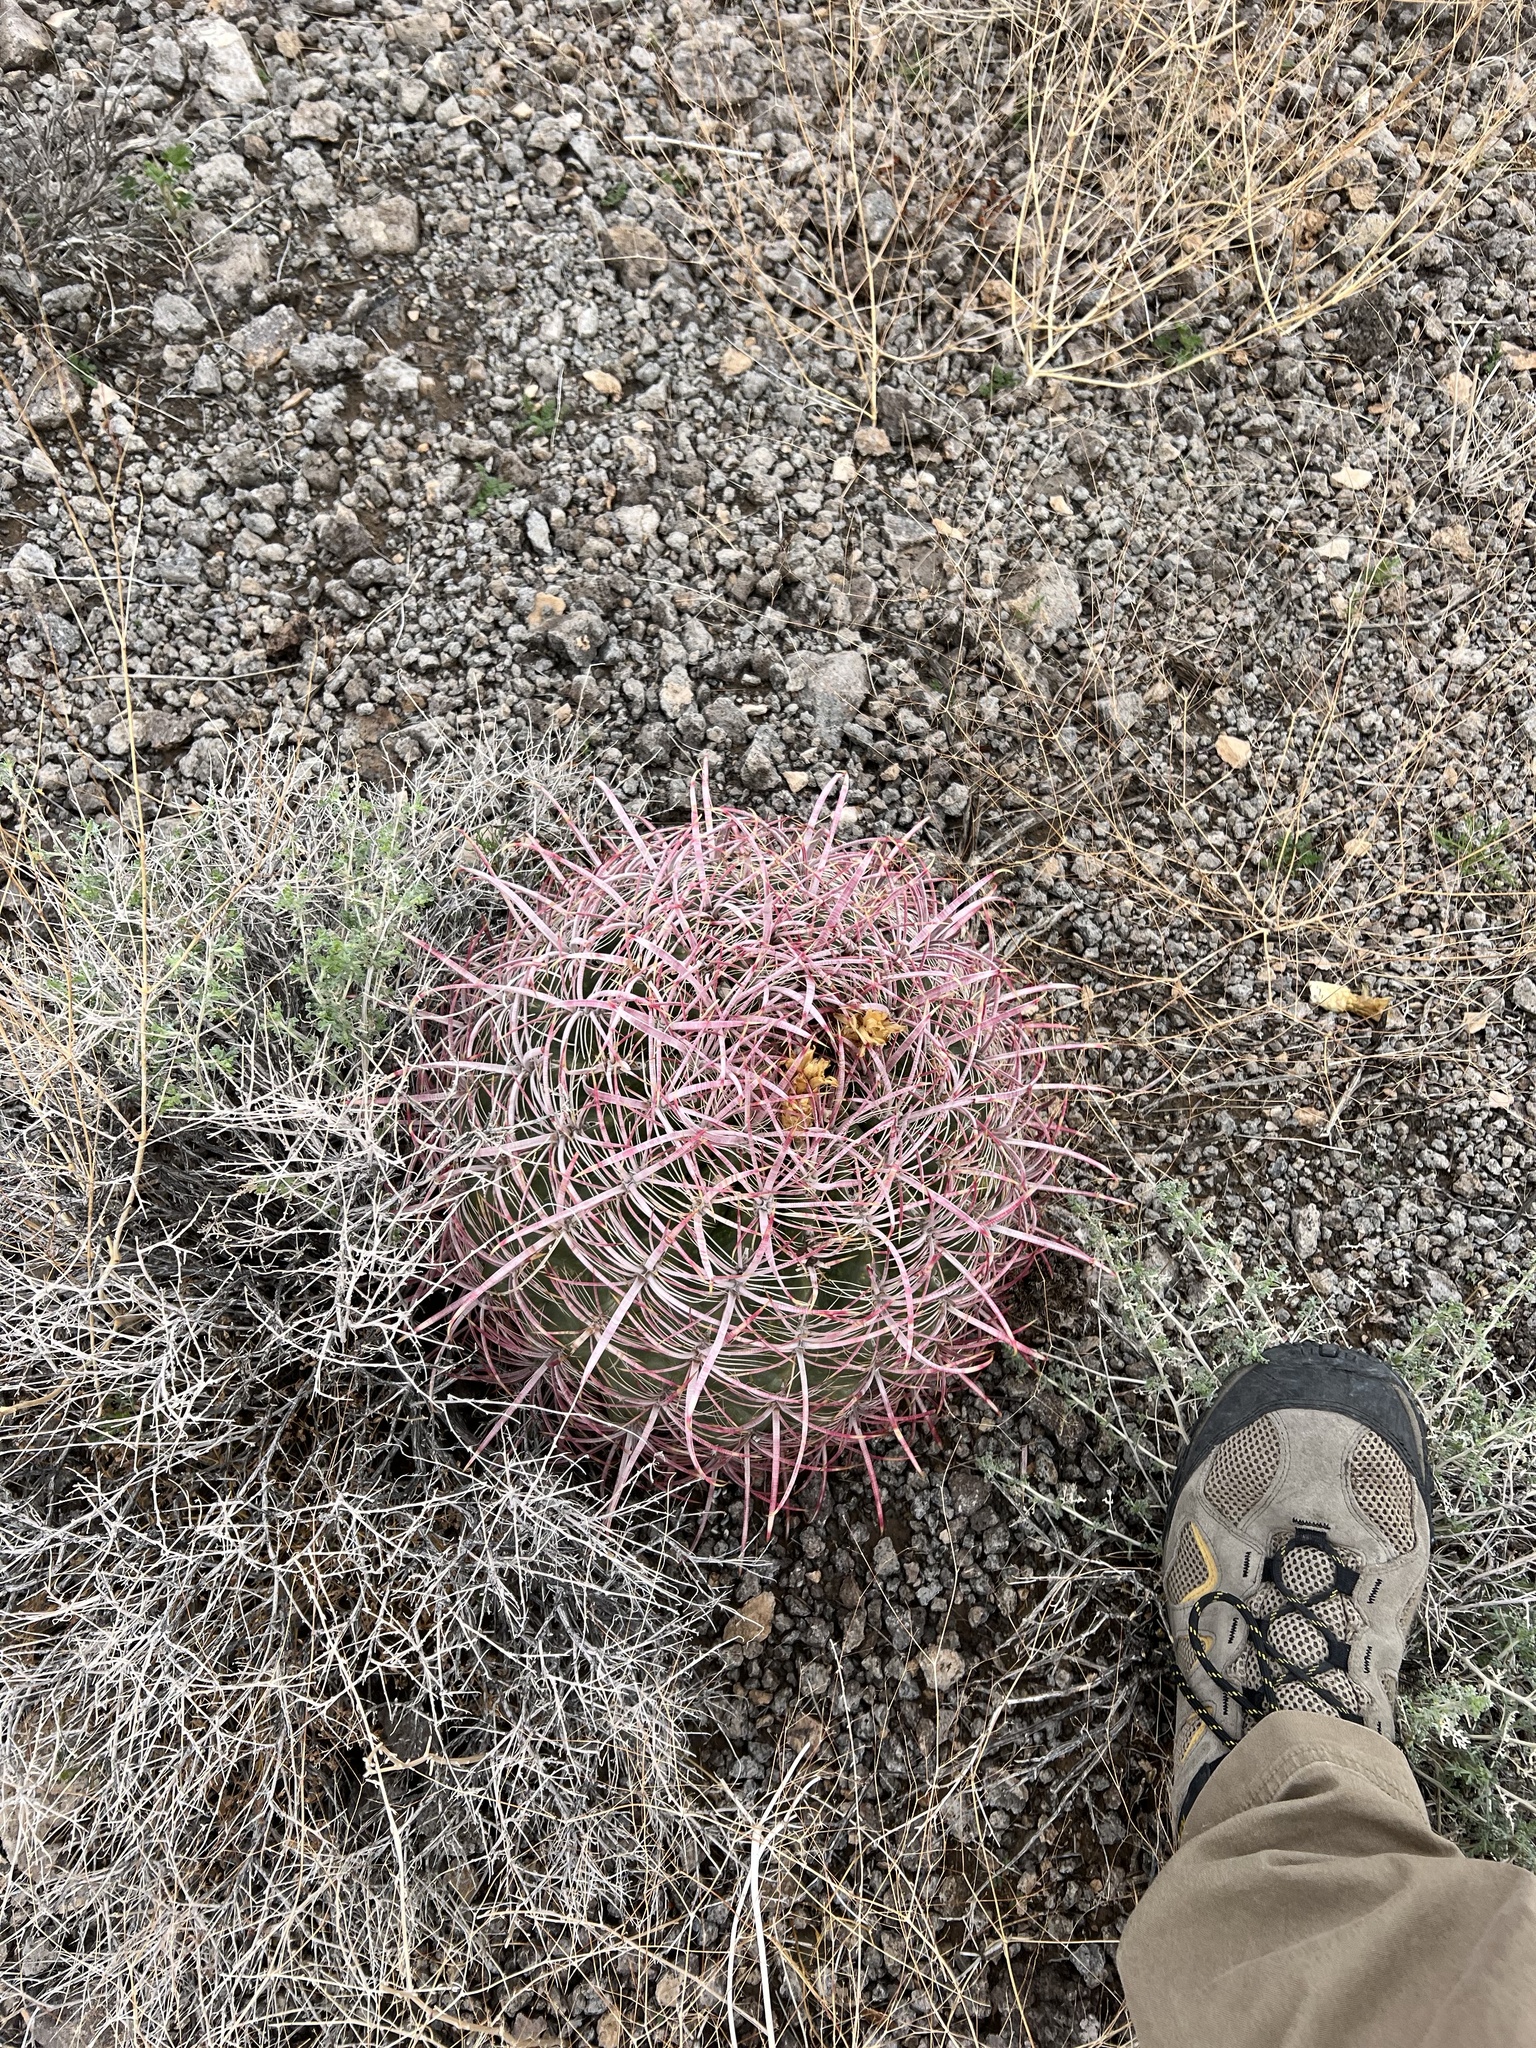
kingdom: Plantae
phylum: Tracheophyta
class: Magnoliopsida
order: Caryophyllales
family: Cactaceae
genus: Ferocactus
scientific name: Ferocactus cylindraceus
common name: California barrel cactus
